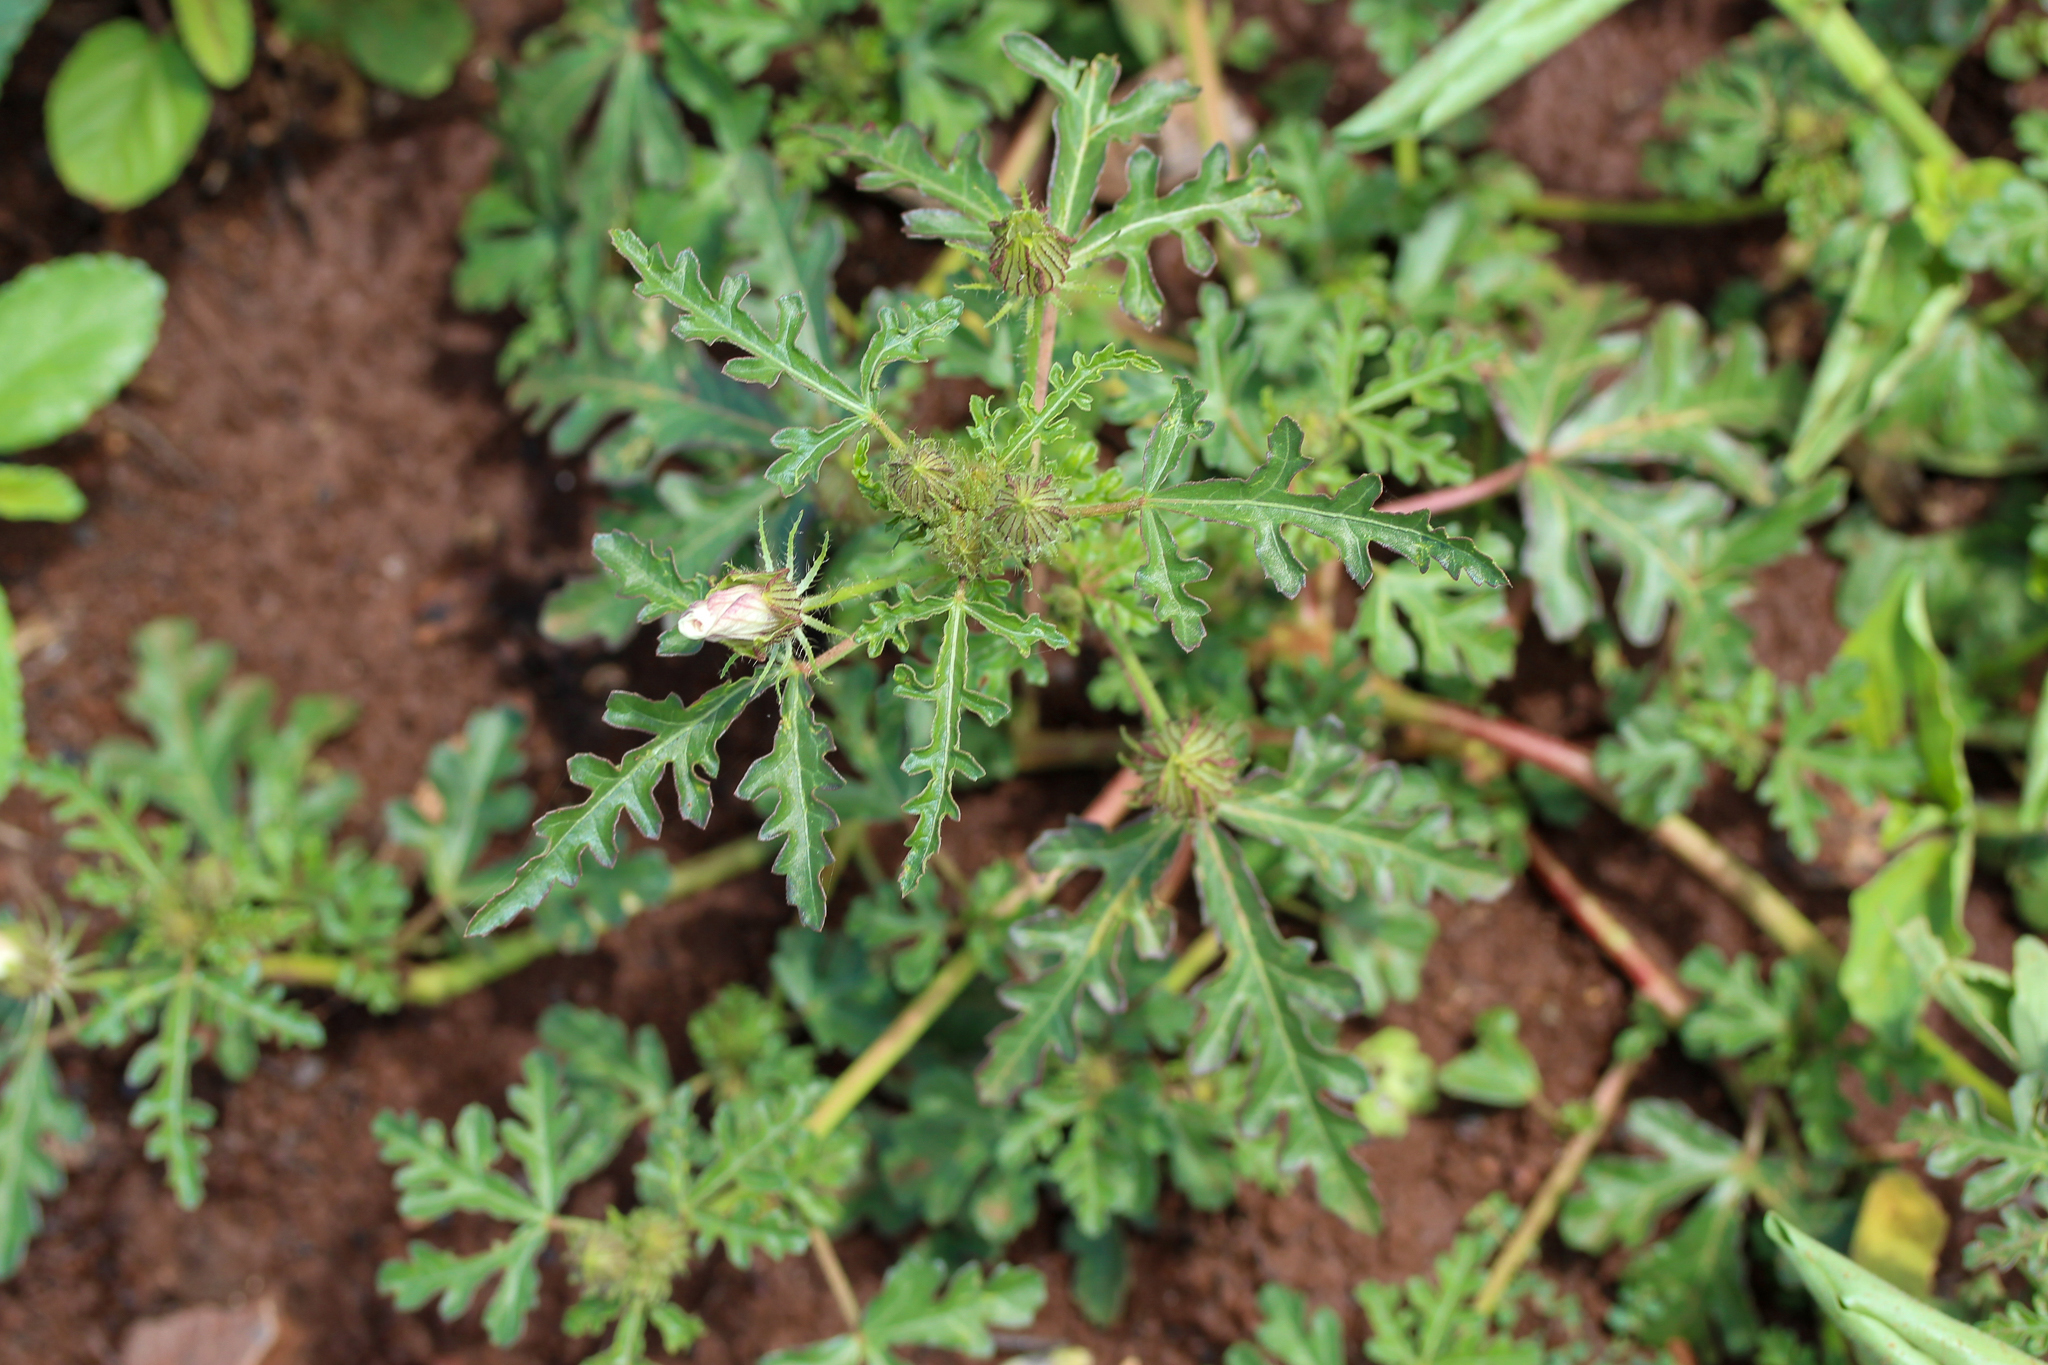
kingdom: Plantae
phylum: Tracheophyta
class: Magnoliopsida
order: Malvales
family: Malvaceae
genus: Hibiscus
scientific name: Hibiscus trionum
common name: Bladder ketmia
